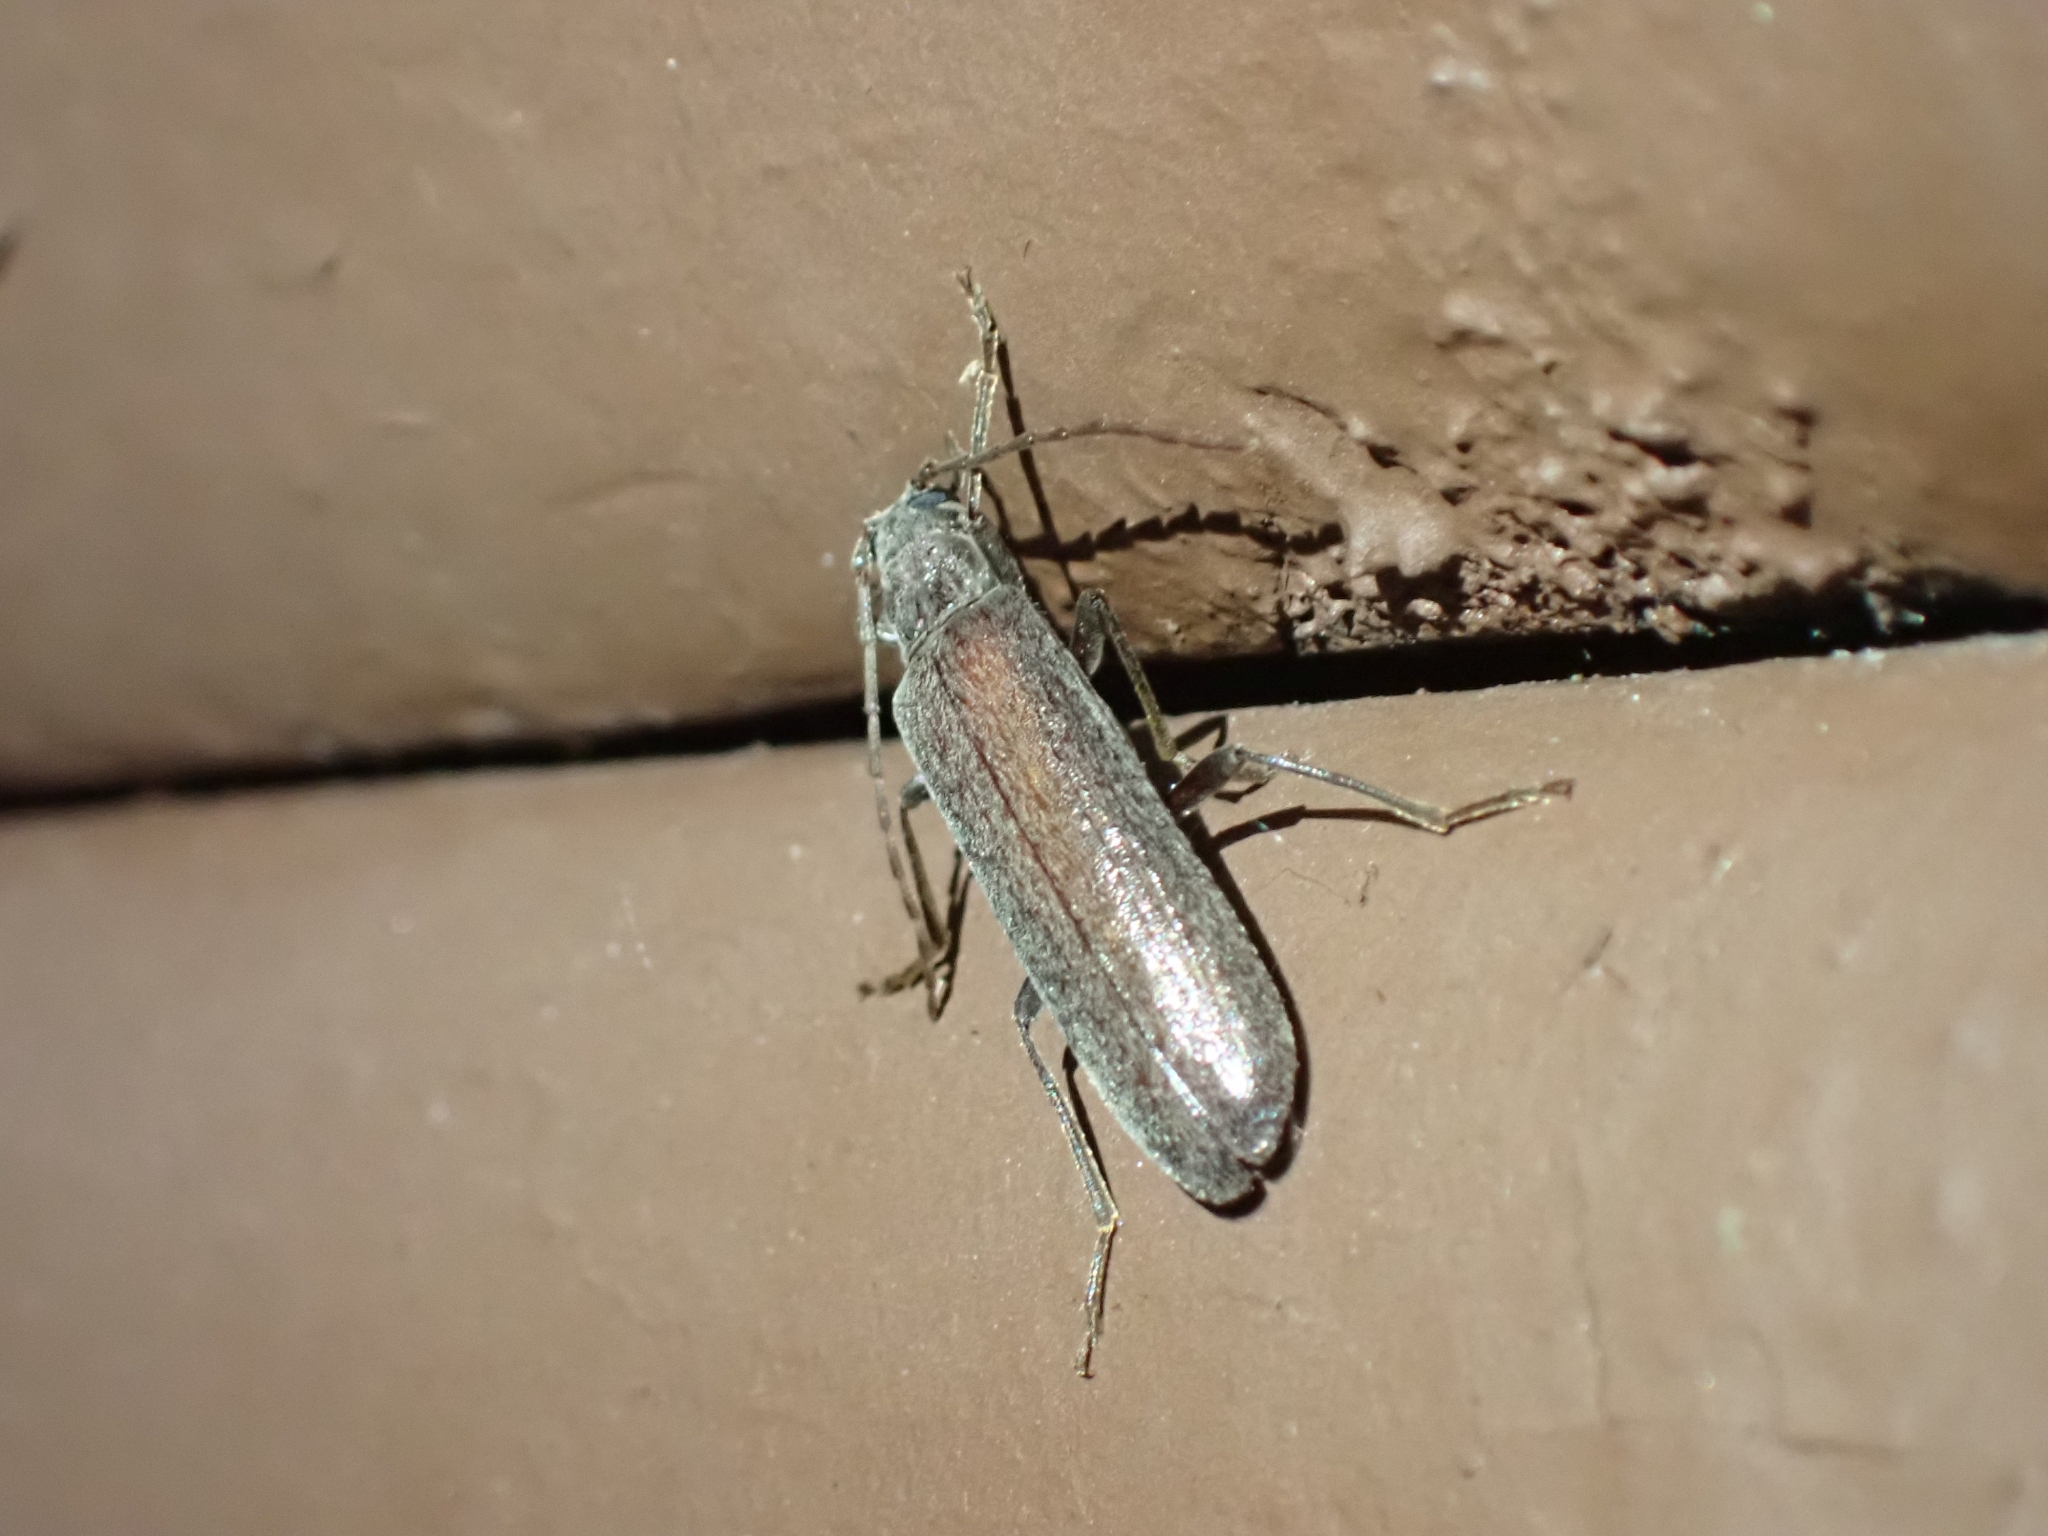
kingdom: Animalia
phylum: Arthropoda
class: Insecta
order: Coleoptera
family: Oedemeridae
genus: Calopus
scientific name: Calopus angustus
